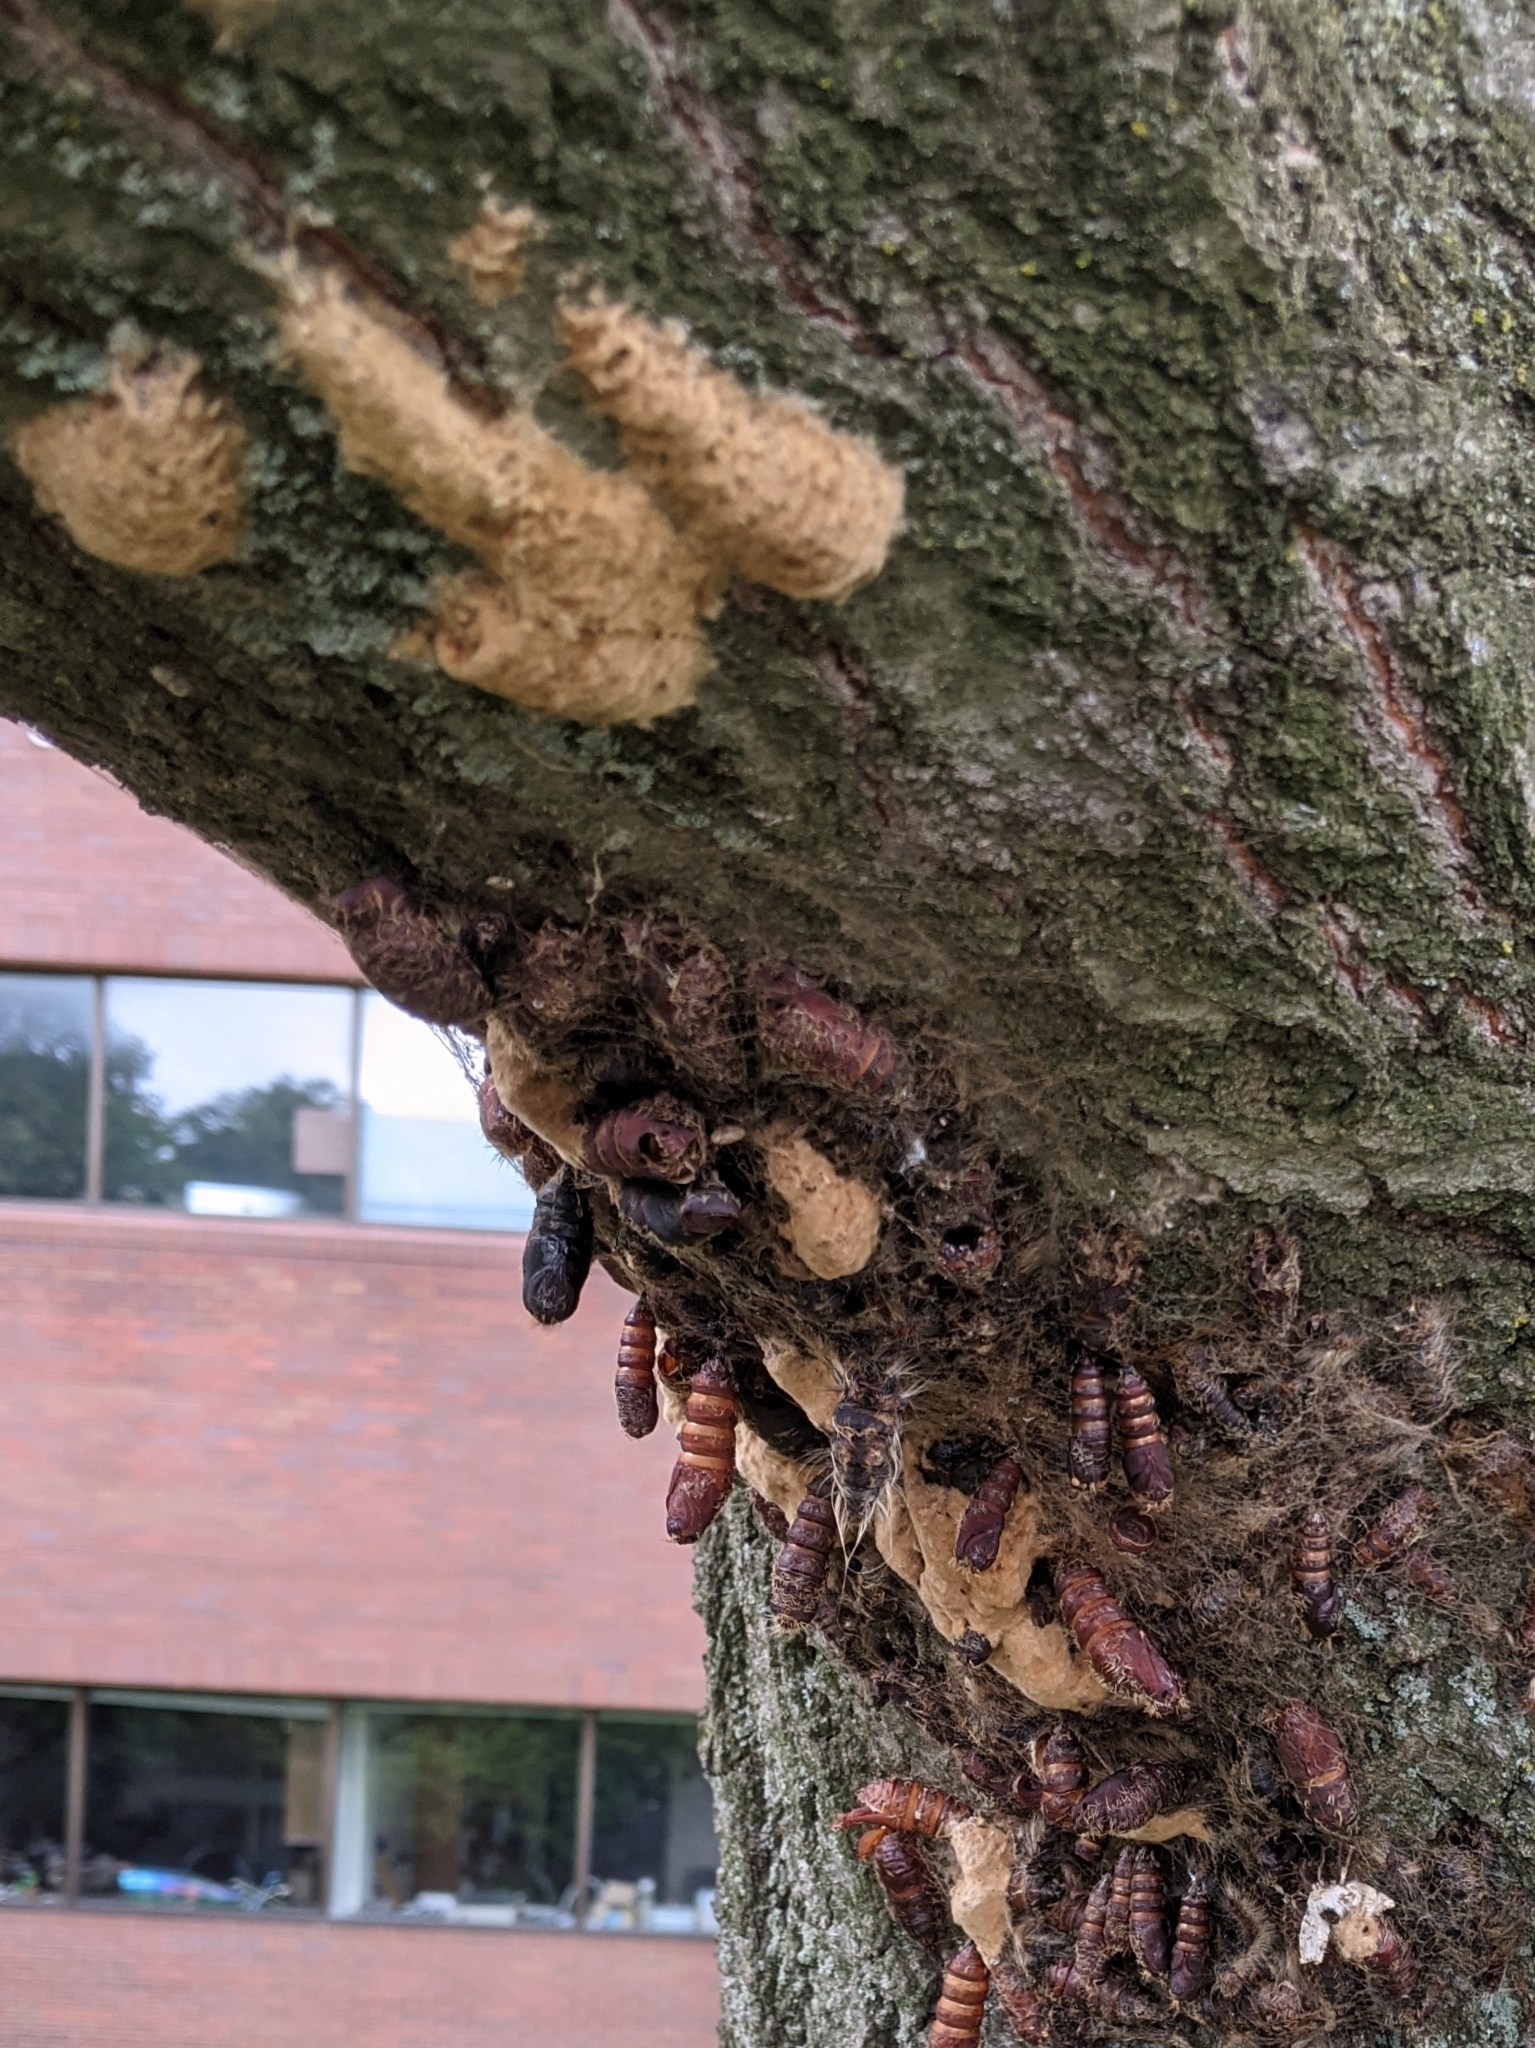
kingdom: Animalia
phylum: Arthropoda
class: Insecta
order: Lepidoptera
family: Erebidae
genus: Lymantria
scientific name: Lymantria dispar
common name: Gypsy moth
